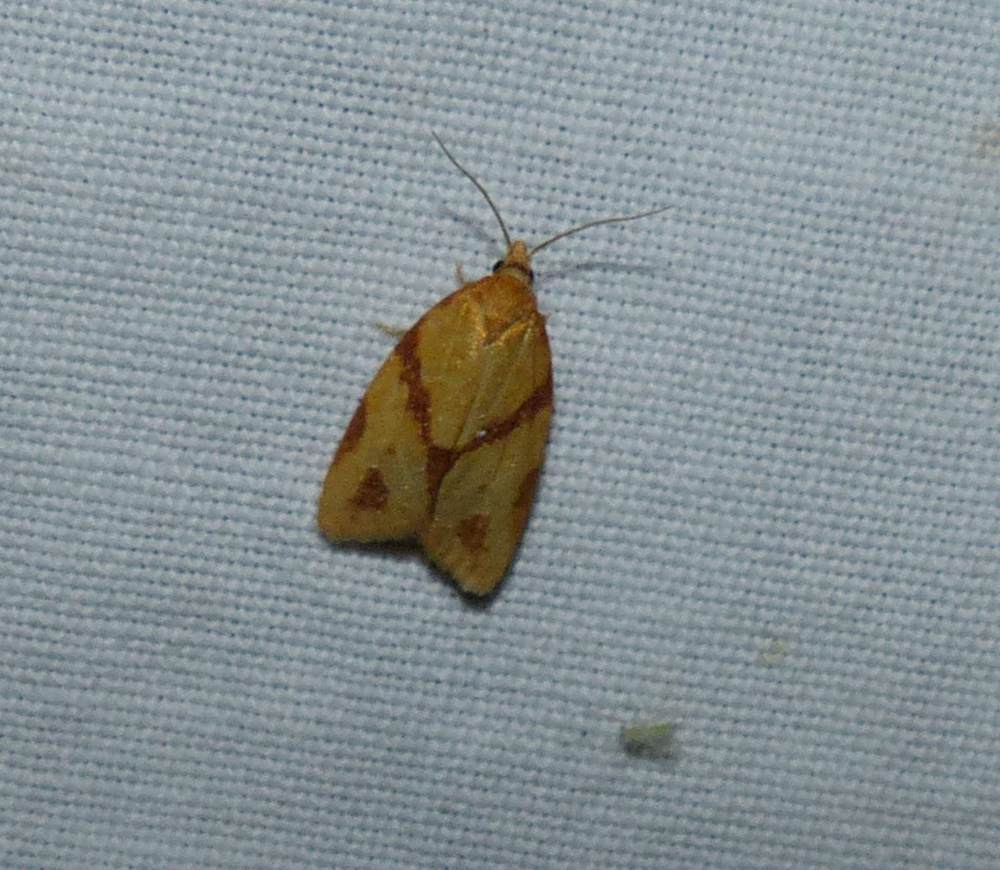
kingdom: Animalia
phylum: Arthropoda
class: Insecta
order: Lepidoptera
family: Tortricidae
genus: Sparganothis
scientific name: Sparganothis unifasciana
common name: One-lined sparganothis moth
